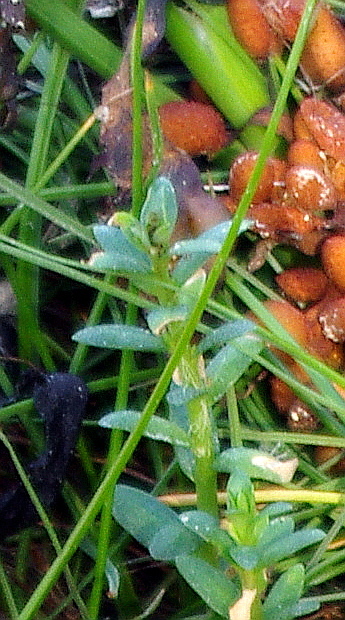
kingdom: Plantae
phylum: Tracheophyta
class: Magnoliopsida
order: Ericales
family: Primulaceae
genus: Lysimachia
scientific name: Lysimachia maritima
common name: Sea milkwort
